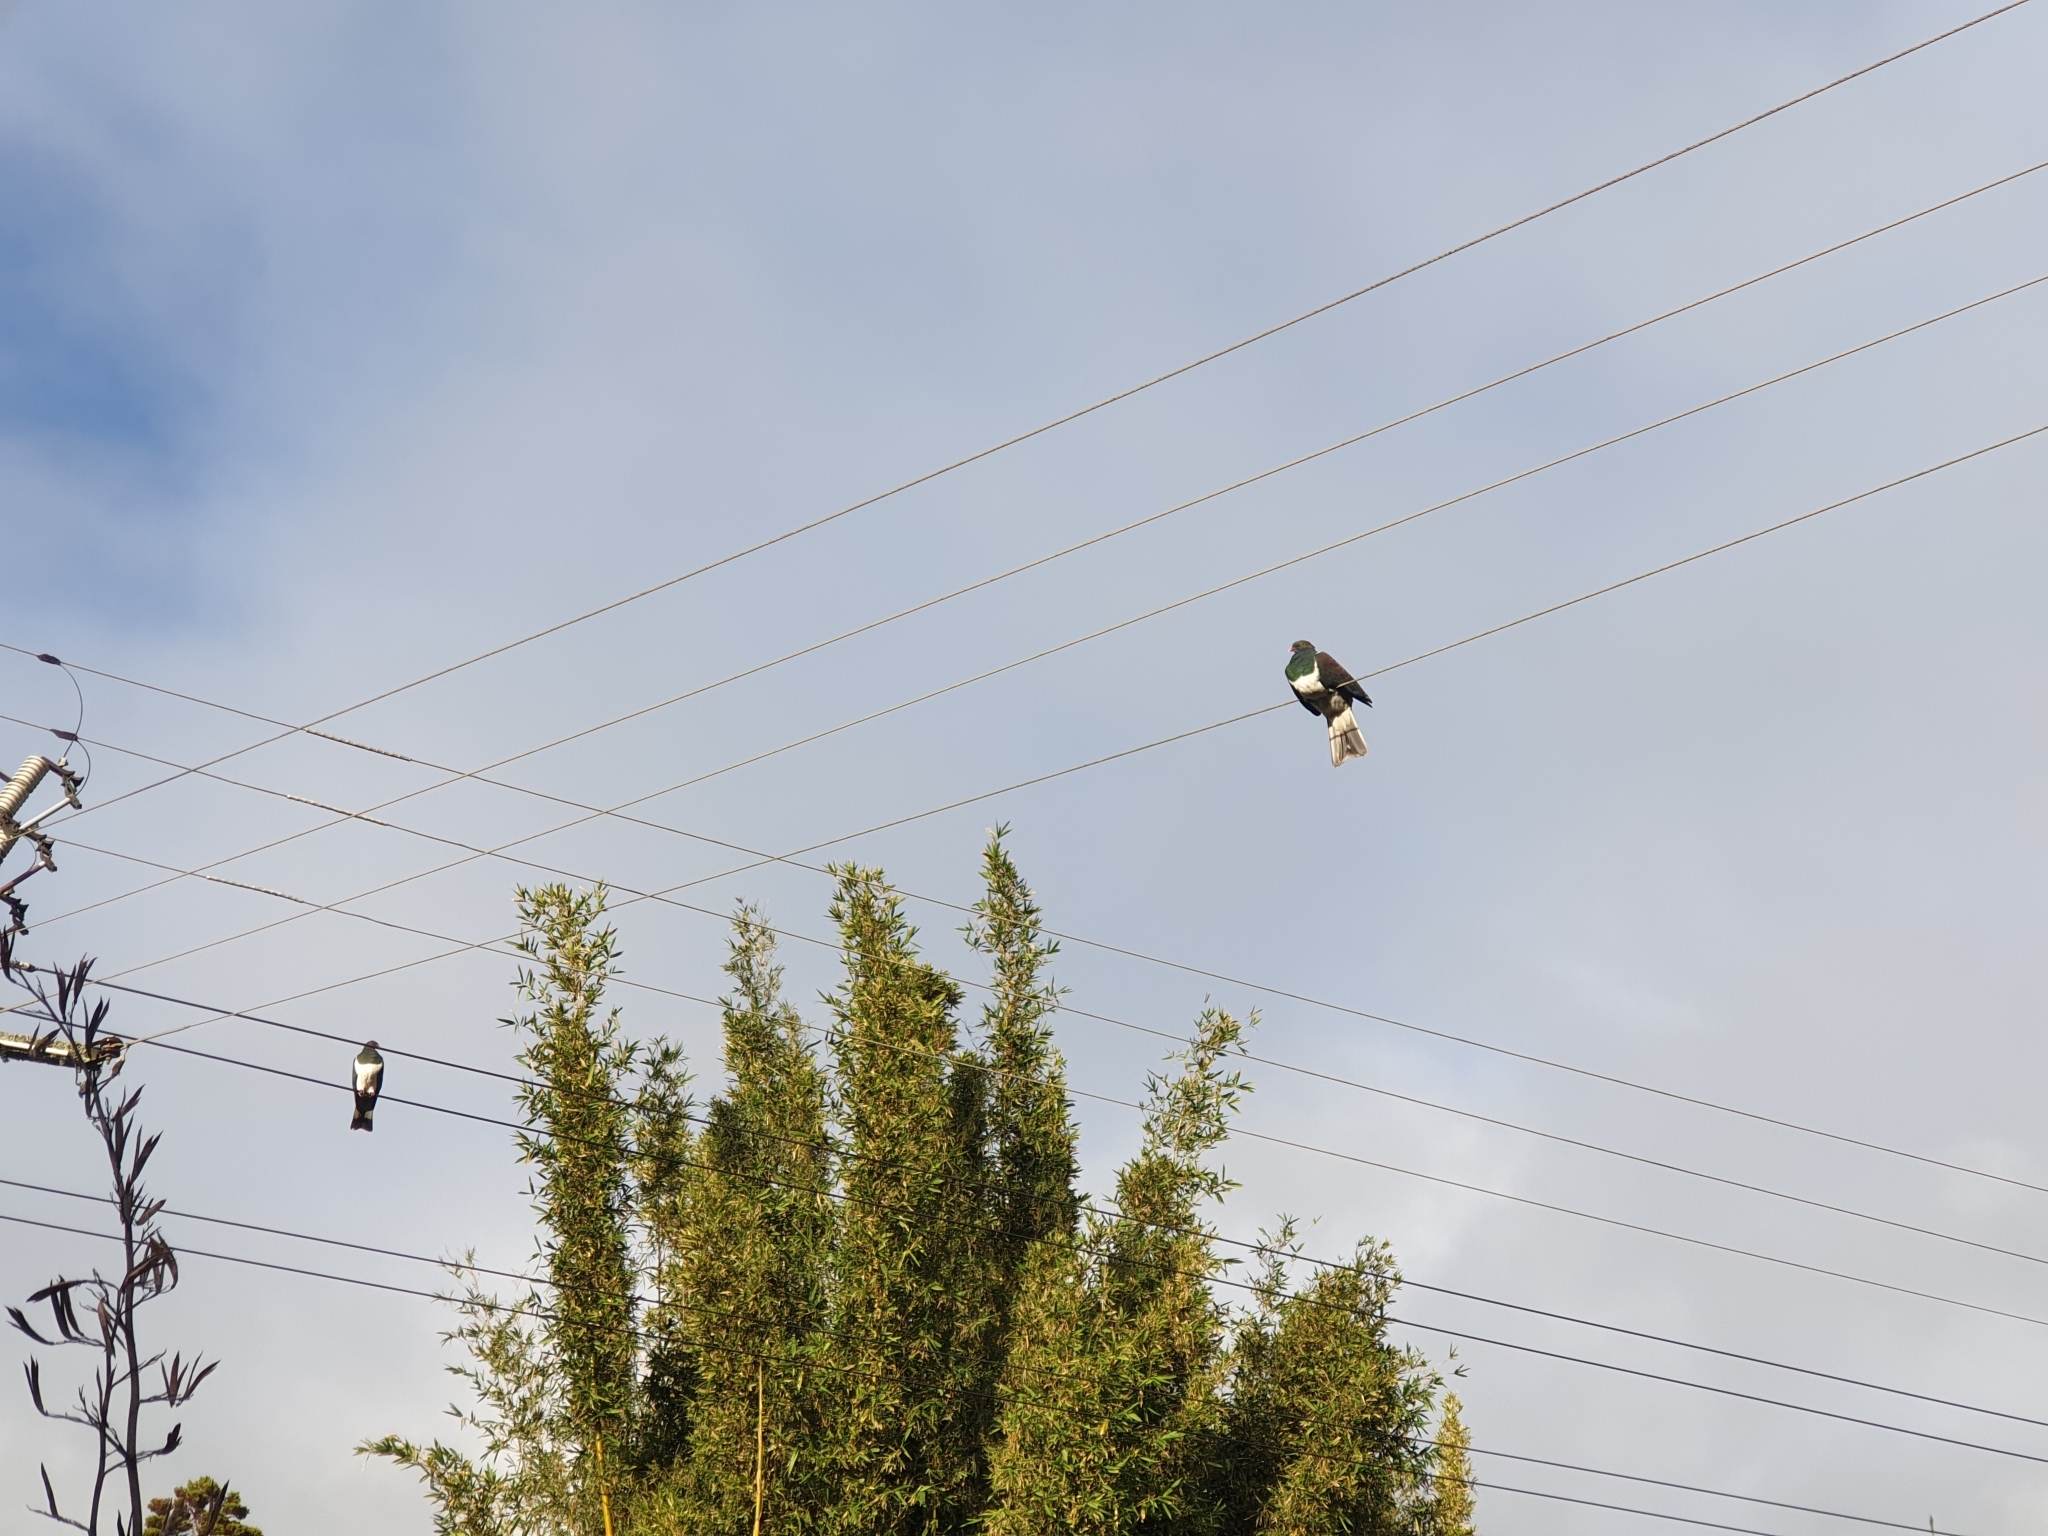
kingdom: Animalia
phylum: Chordata
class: Aves
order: Columbiformes
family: Columbidae
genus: Hemiphaga
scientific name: Hemiphaga novaeseelandiae
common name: New zealand pigeon
